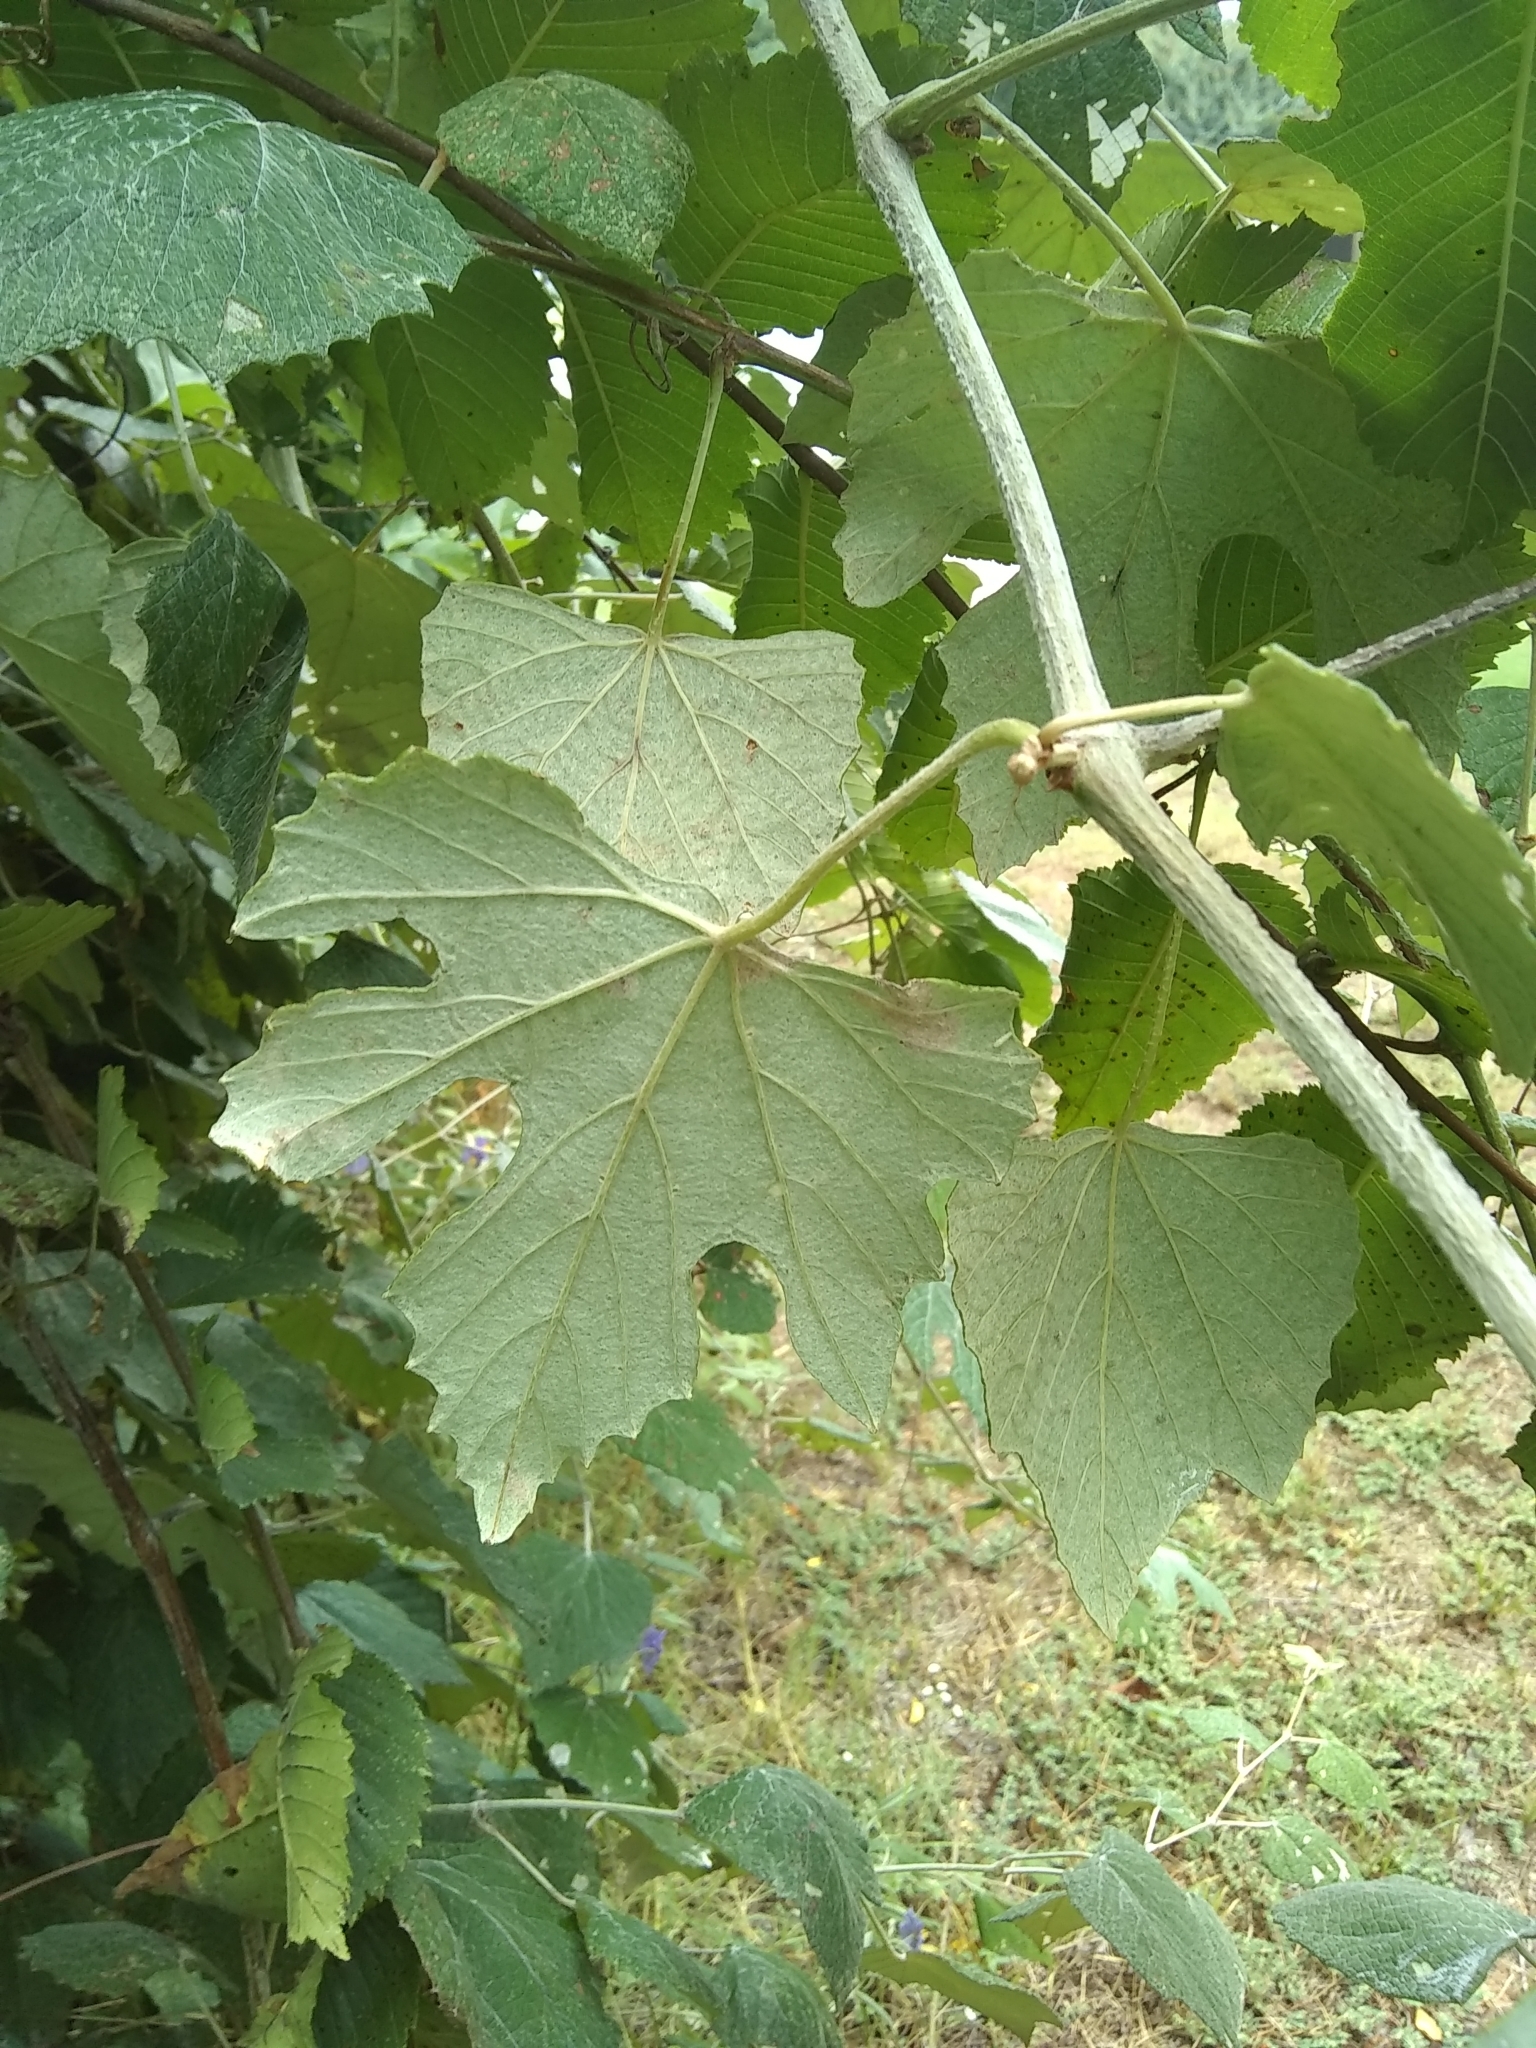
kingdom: Plantae
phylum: Tracheophyta
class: Magnoliopsida
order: Vitales
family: Vitaceae
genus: Vitis
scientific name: Vitis mustangensis
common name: Mustang grape
